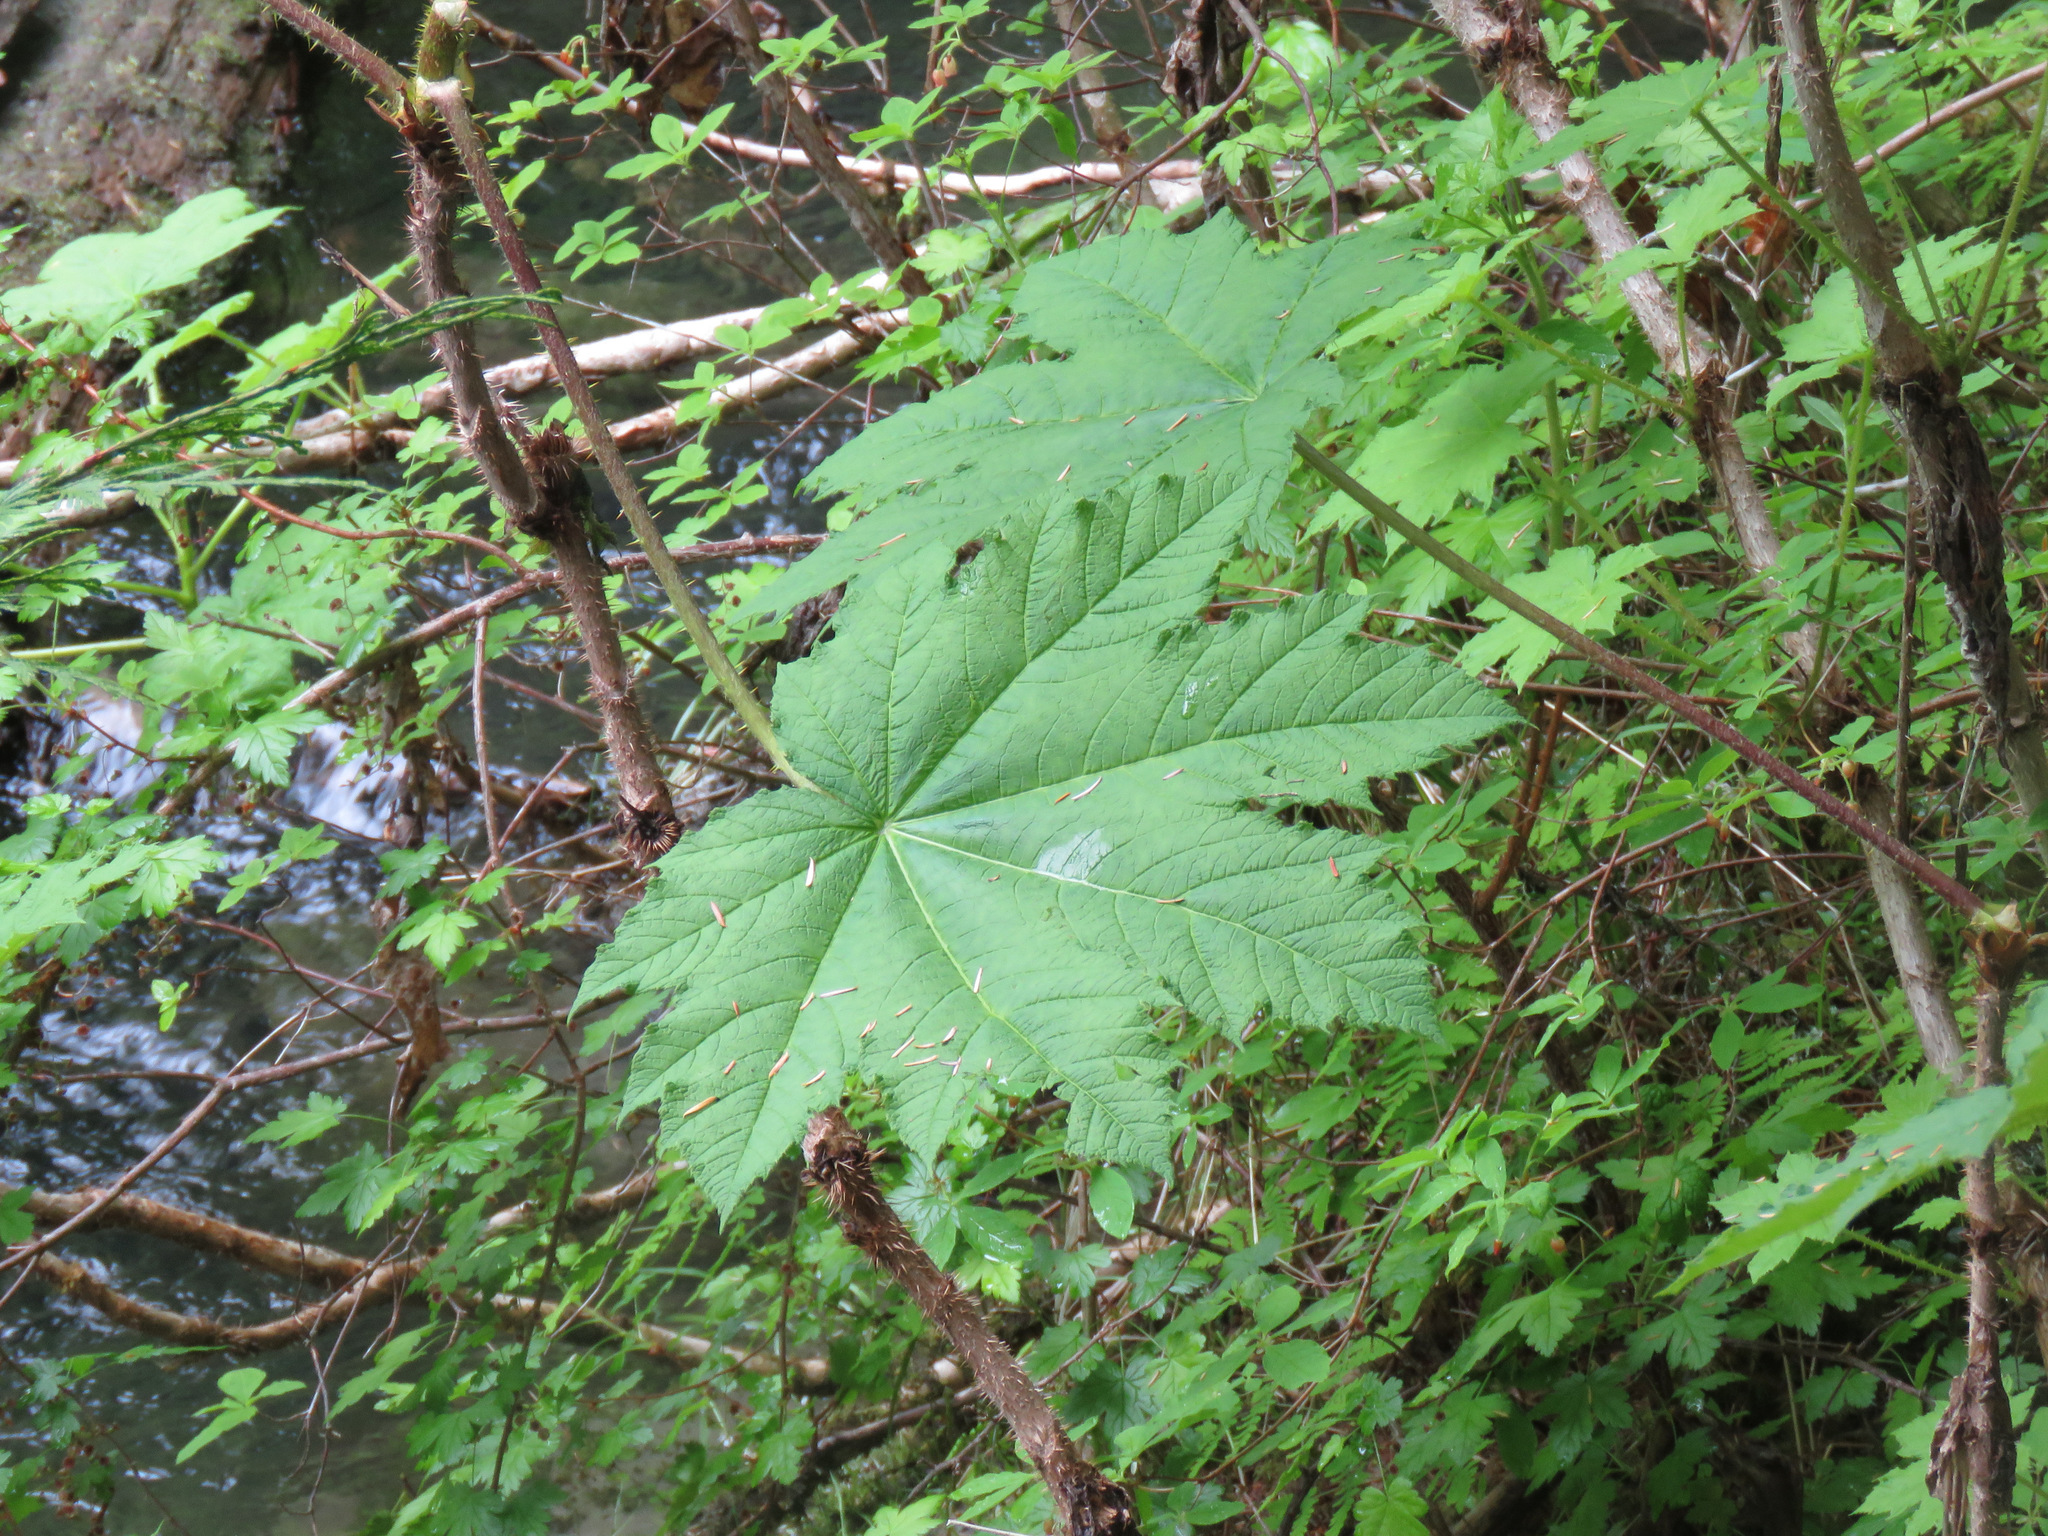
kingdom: Plantae
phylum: Tracheophyta
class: Magnoliopsida
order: Apiales
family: Araliaceae
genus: Oplopanax
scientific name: Oplopanax horridus
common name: Devil's walking-stick
